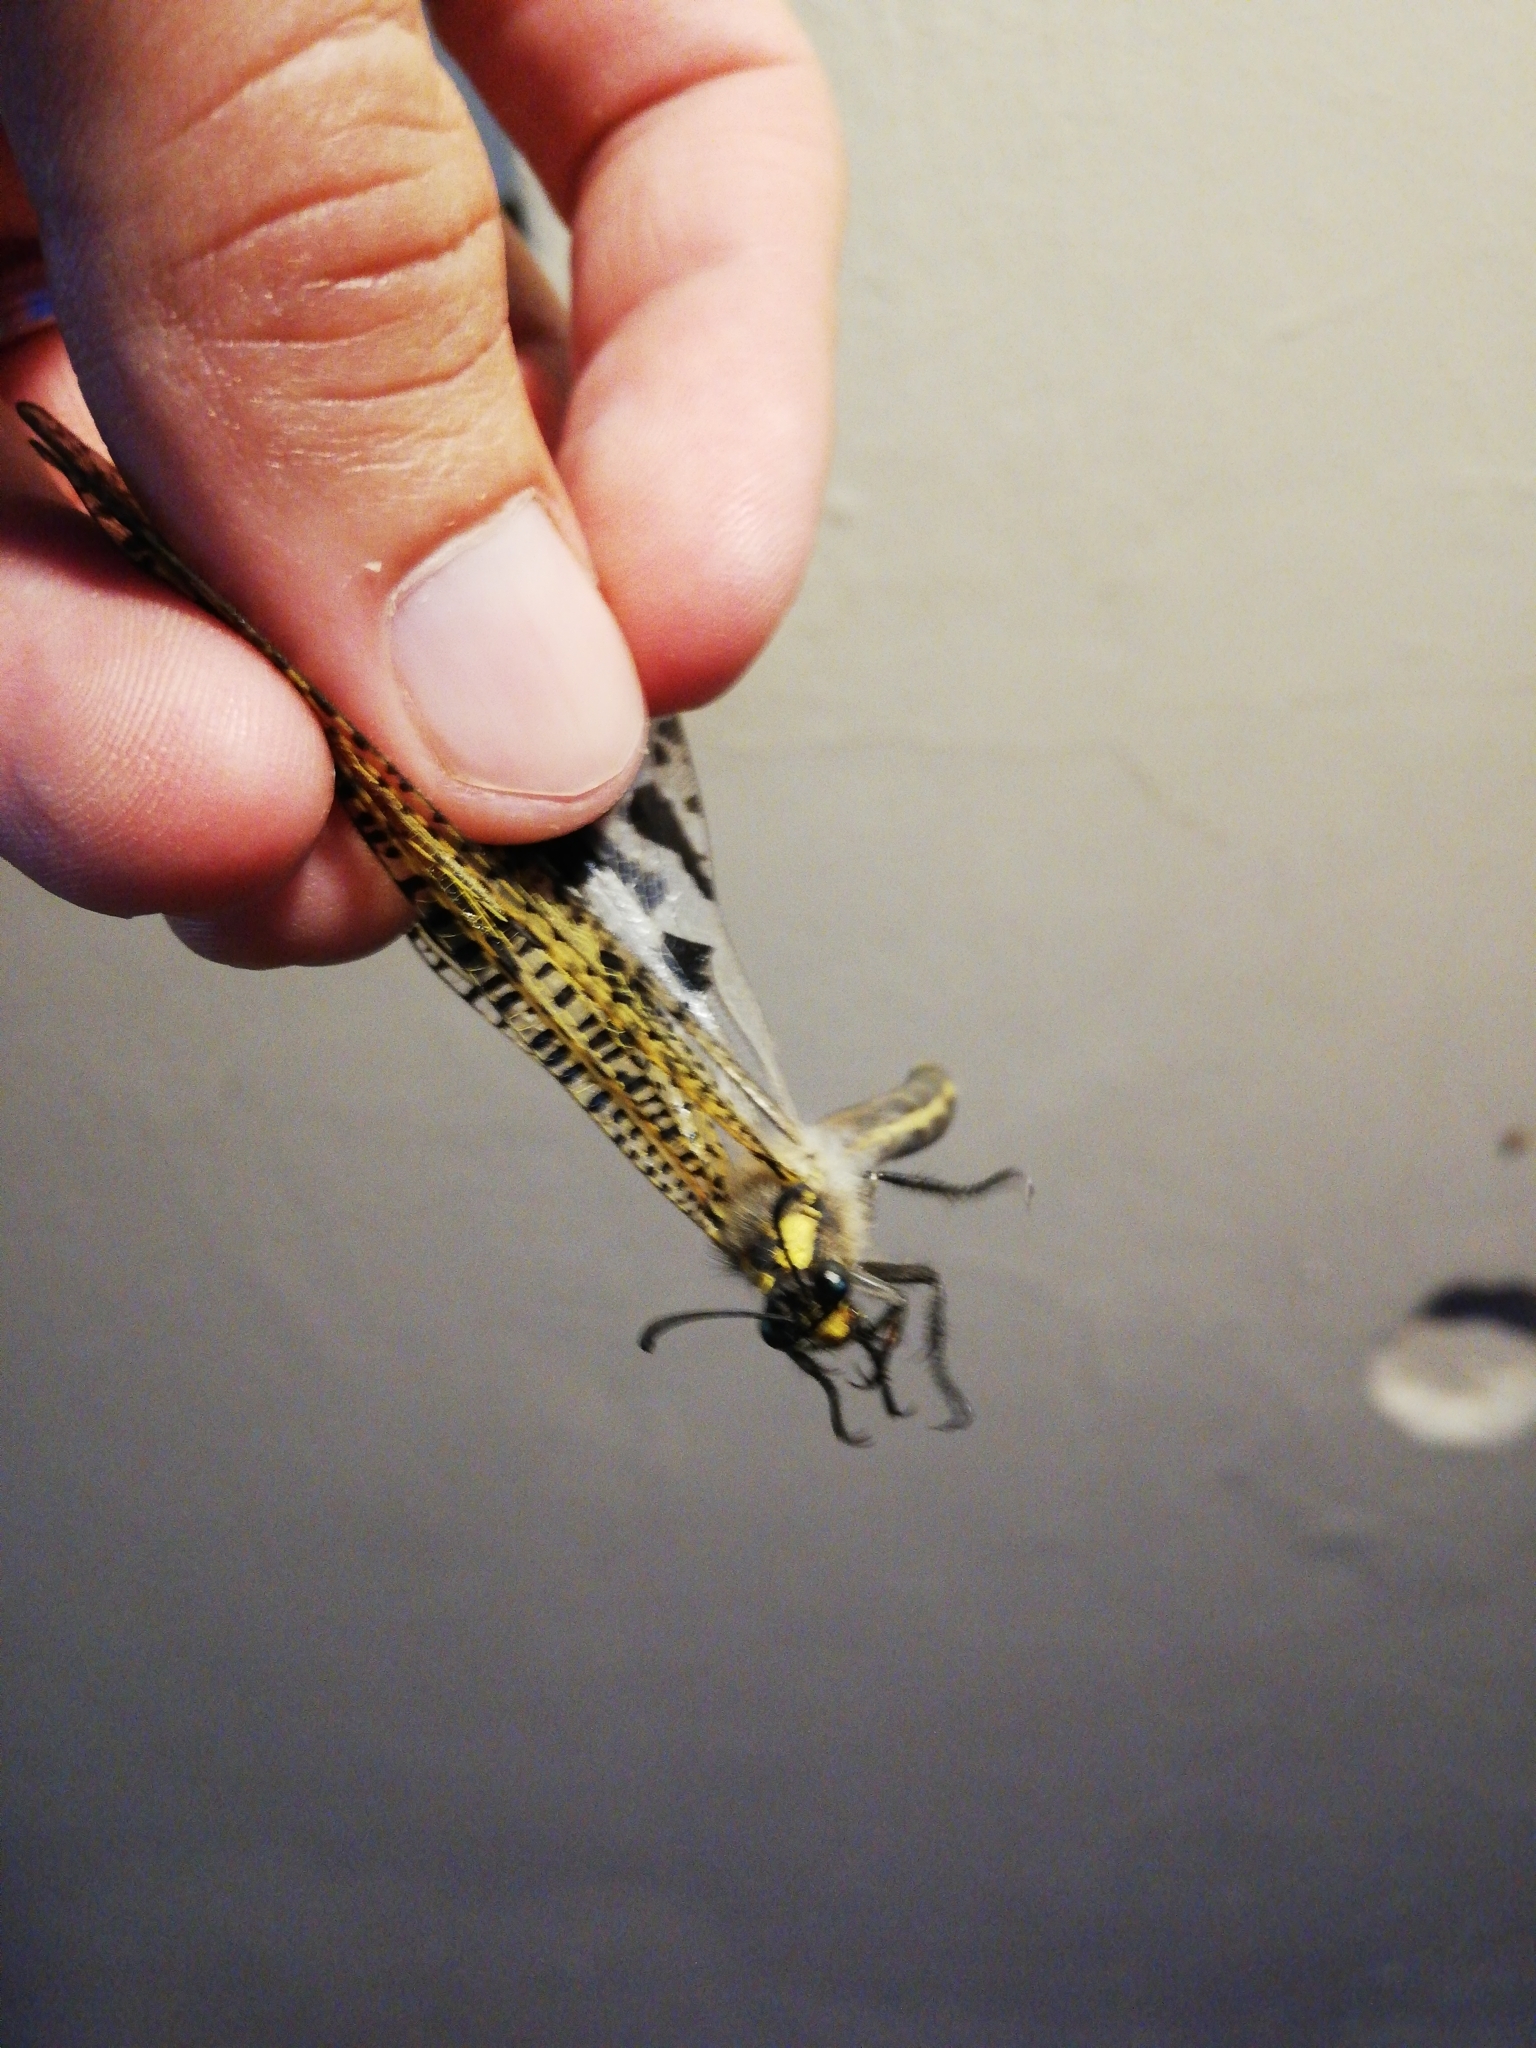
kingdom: Animalia
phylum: Arthropoda
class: Insecta
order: Neuroptera
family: Myrmeleontidae
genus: Palpares
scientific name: Palpares speciosus
